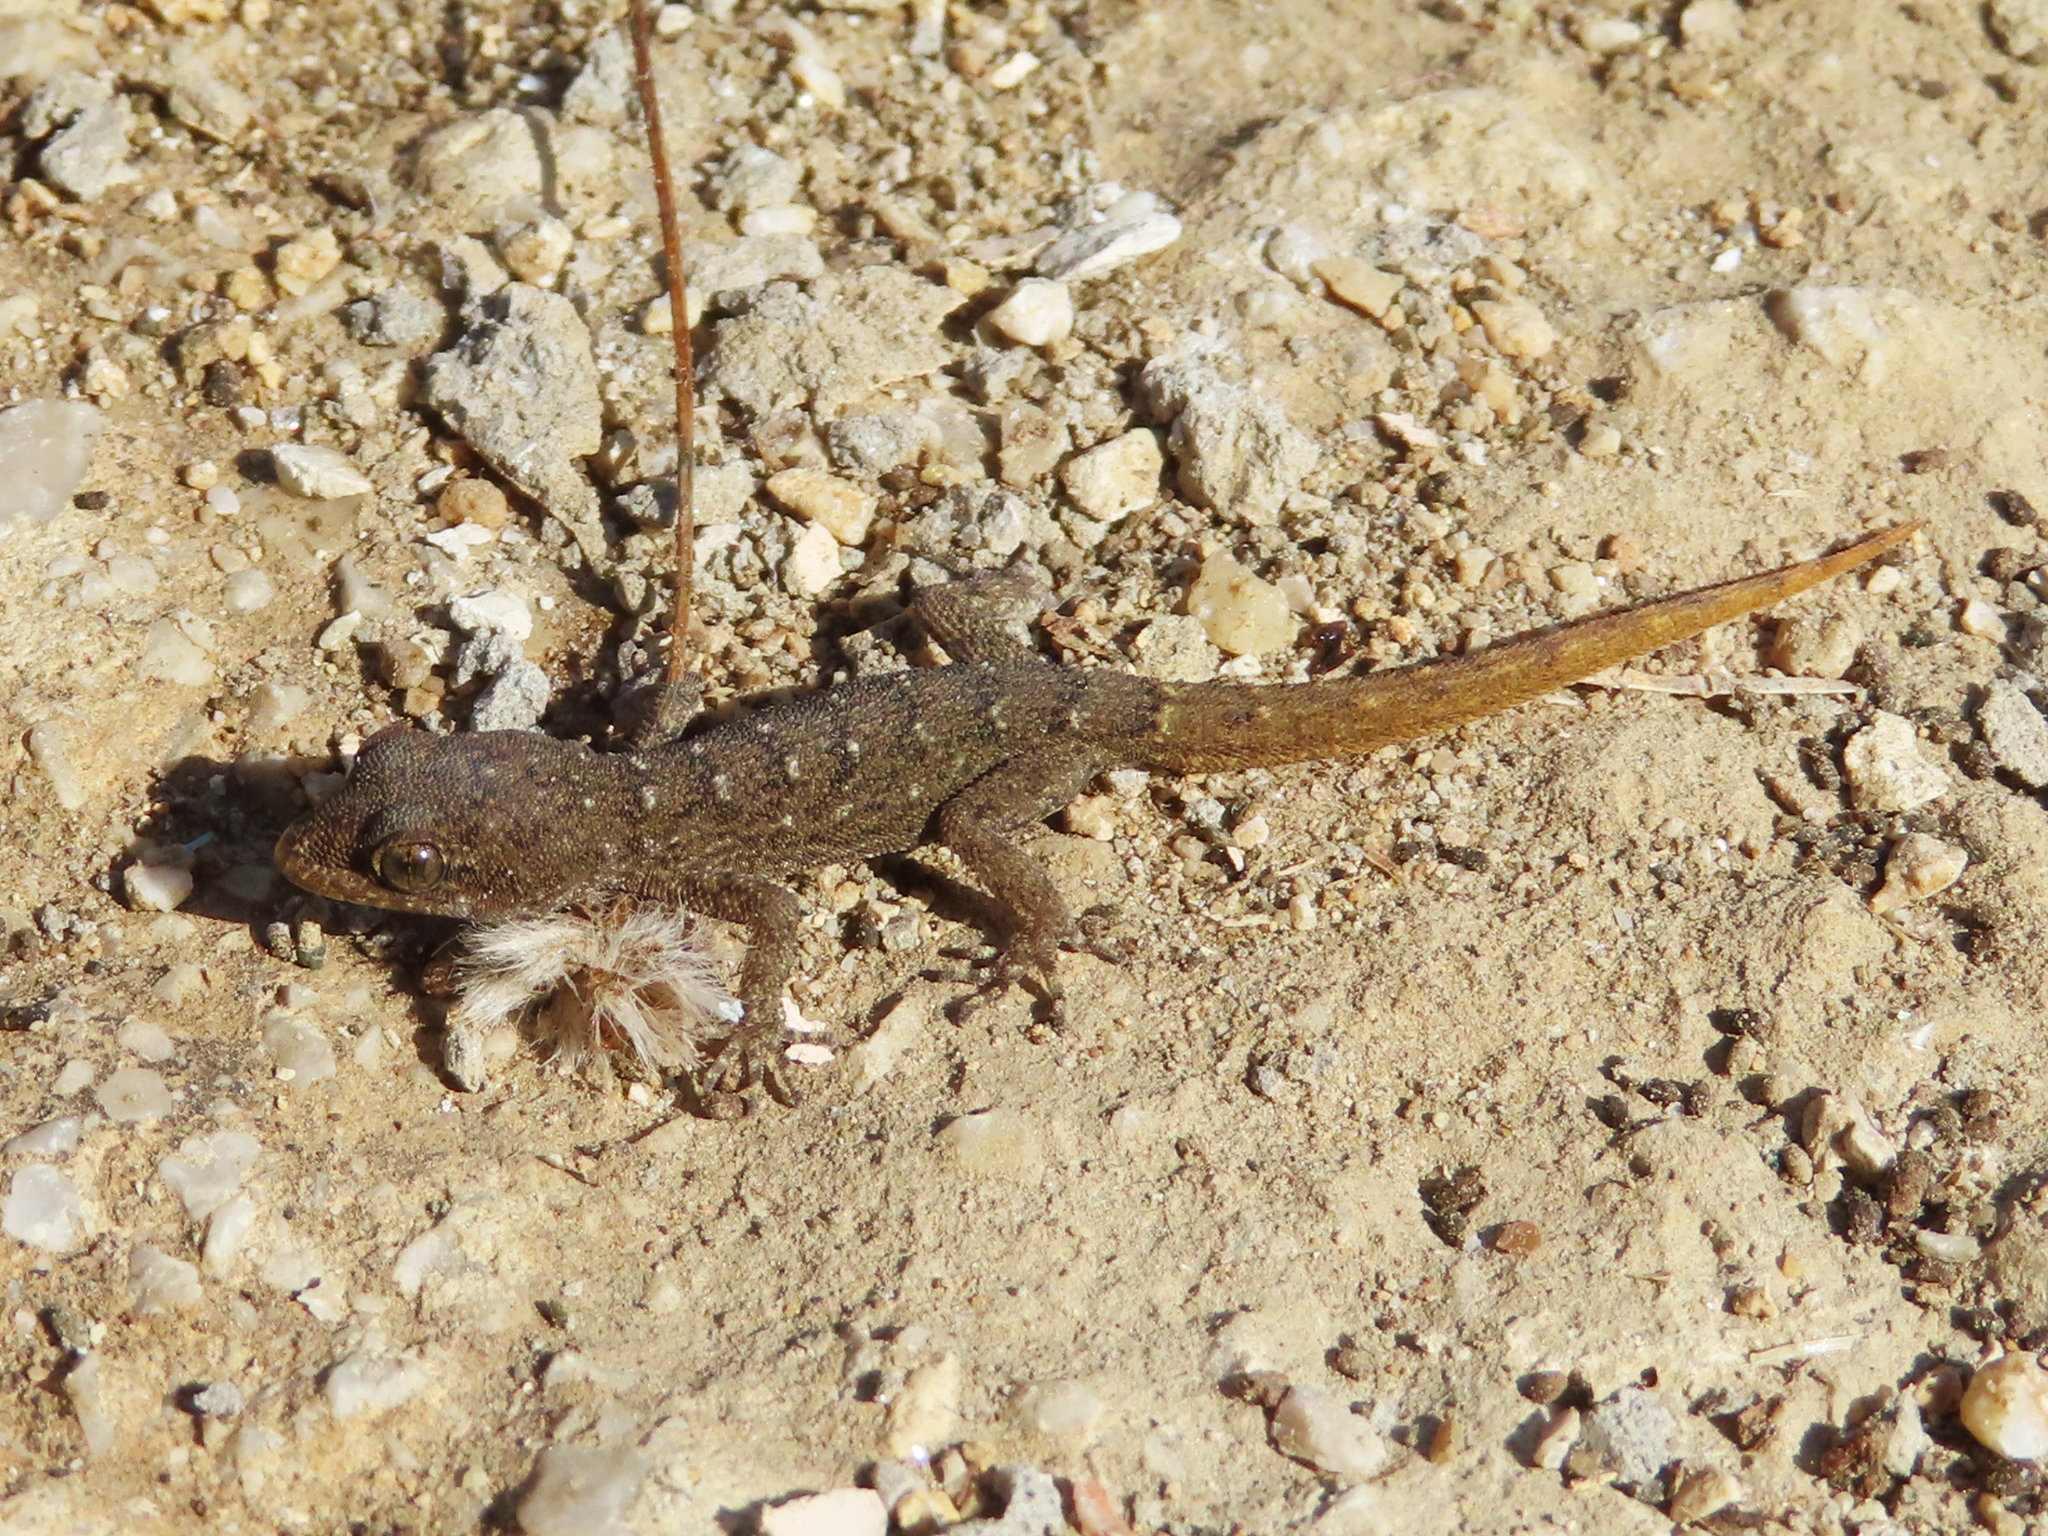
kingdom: Animalia
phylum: Chordata
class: Squamata
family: Gekkonidae
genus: Mediodactylus
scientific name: Mediodactylus oertzeni
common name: Mediterranean thin-toed gecko
